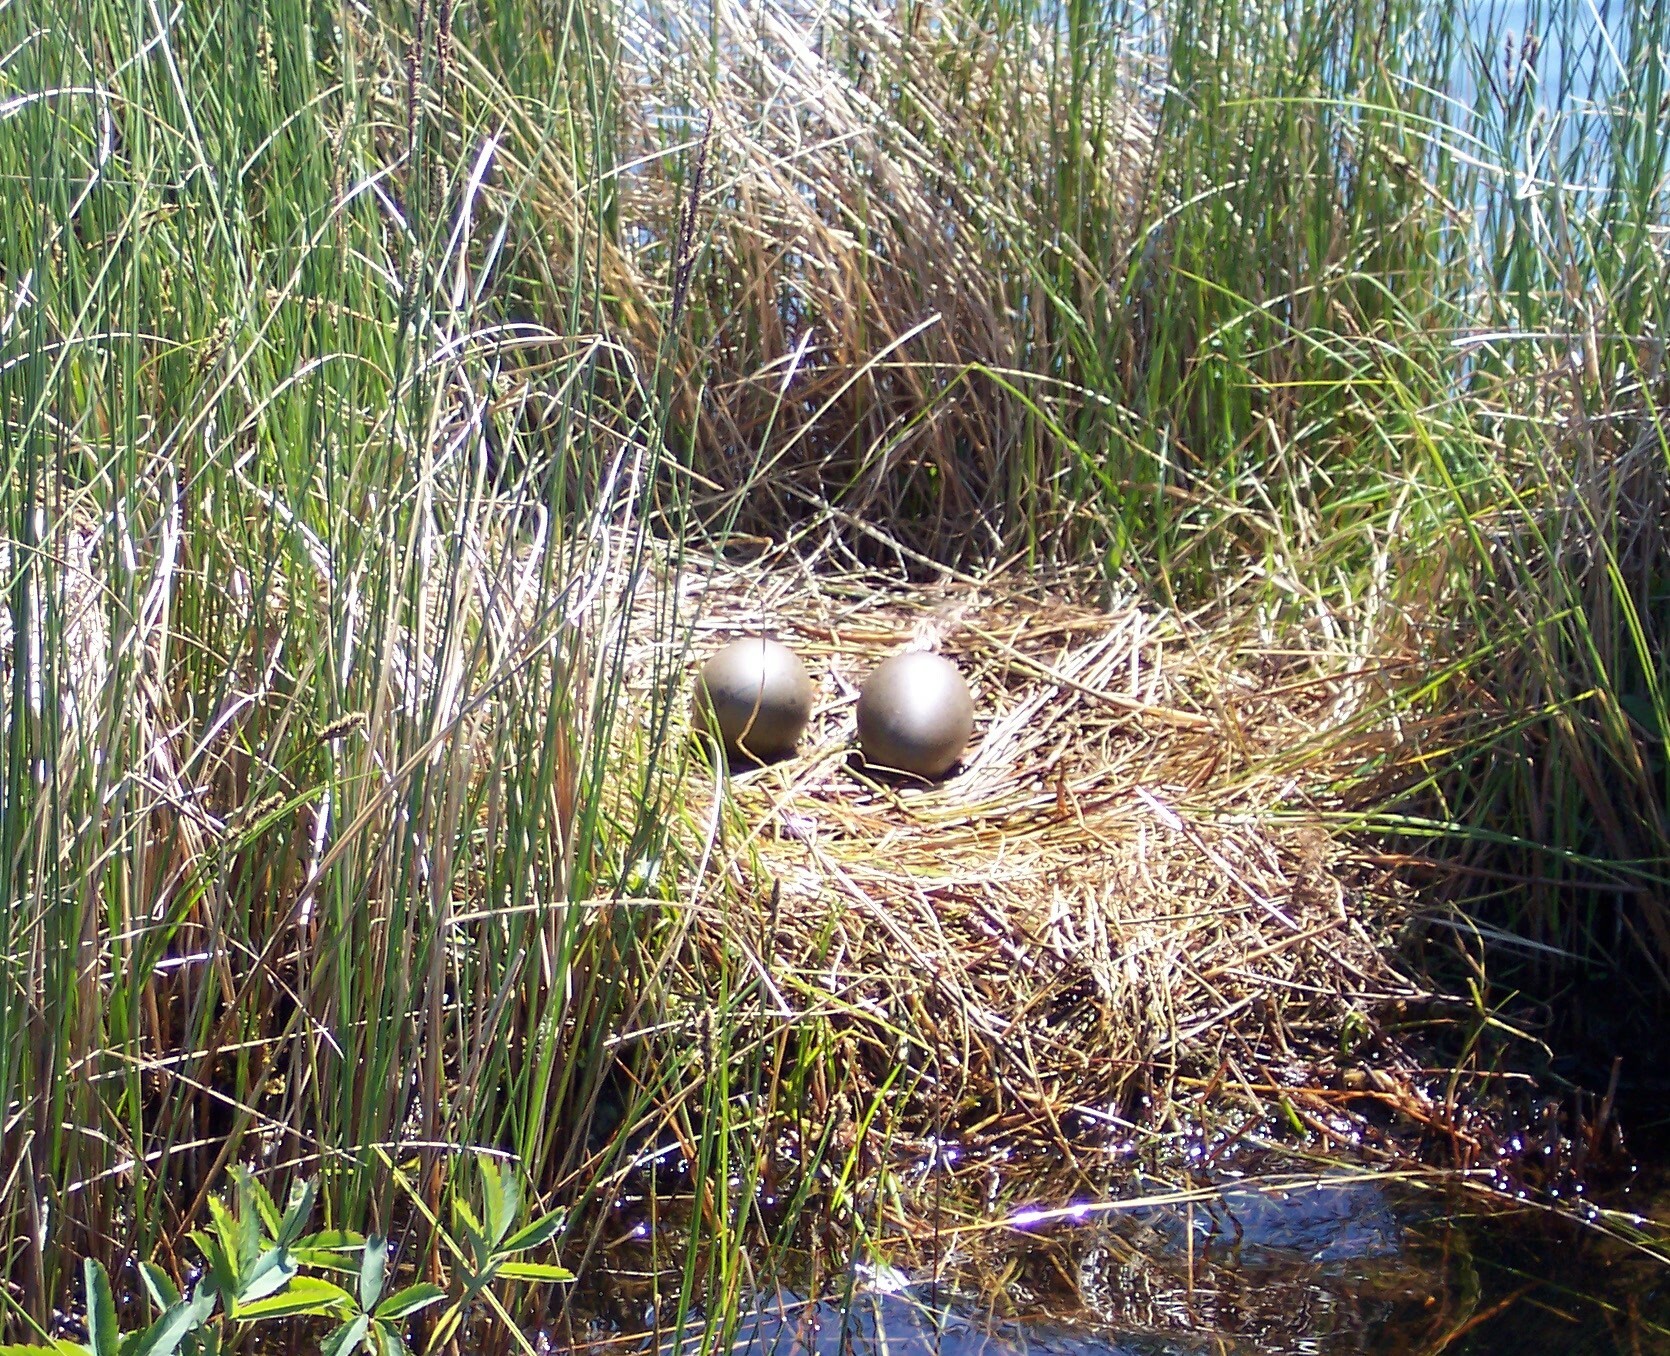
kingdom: Animalia
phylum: Chordata
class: Aves
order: Gaviiformes
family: Gaviidae
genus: Gavia
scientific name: Gavia immer
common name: Common loon
